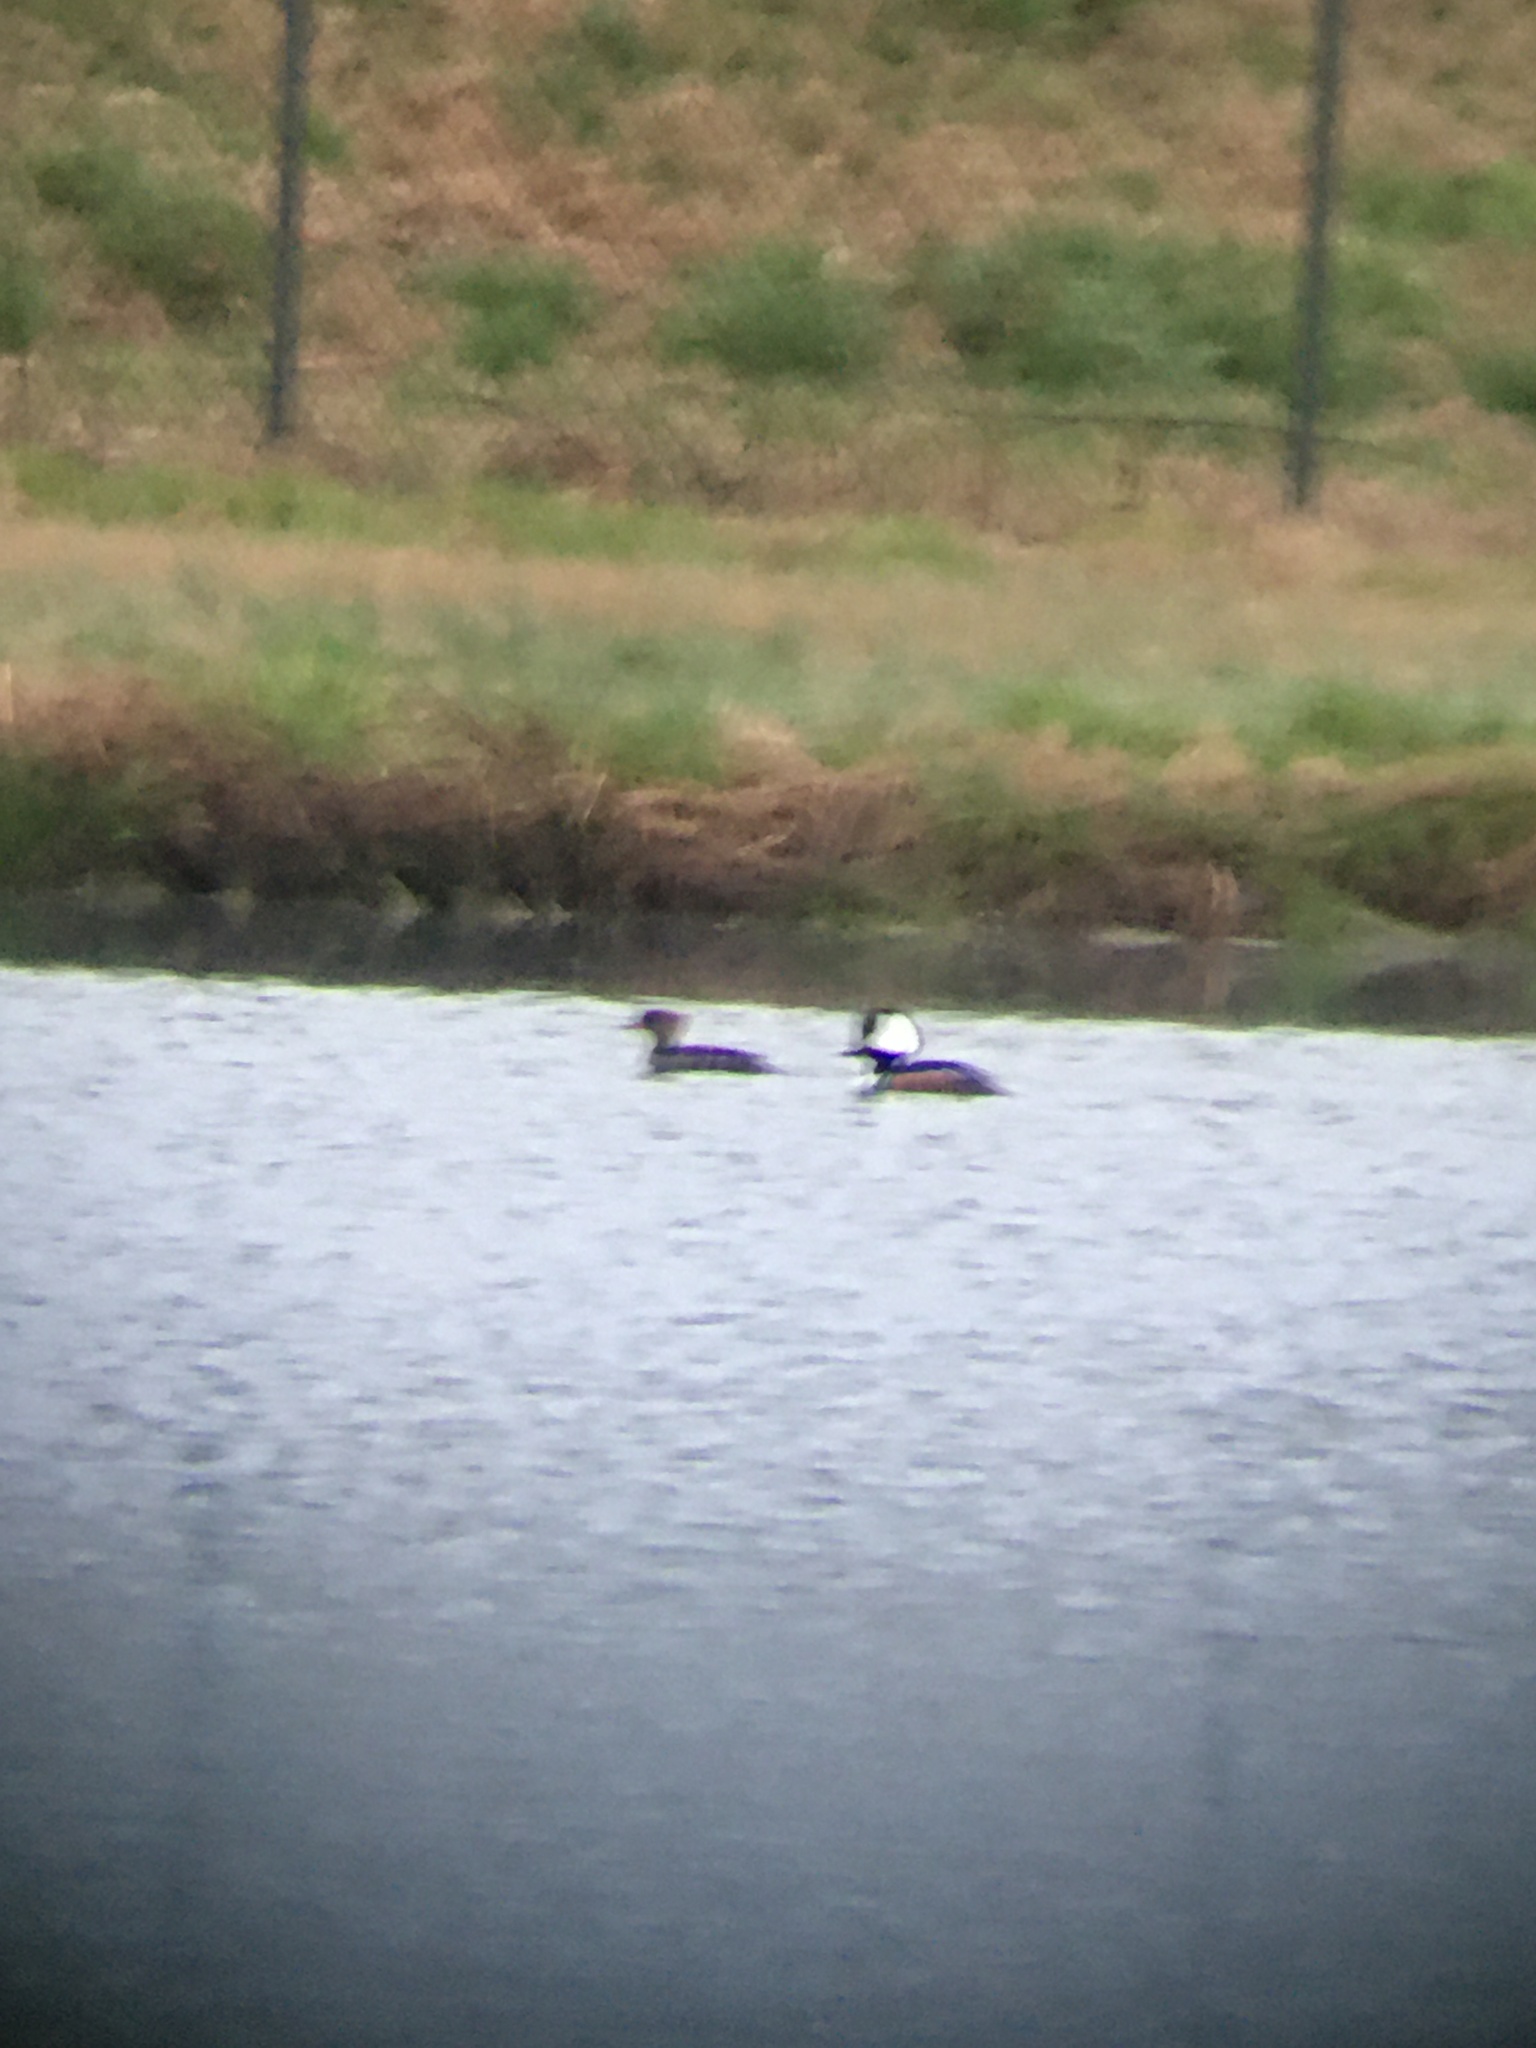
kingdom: Animalia
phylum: Chordata
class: Aves
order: Anseriformes
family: Anatidae
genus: Lophodytes
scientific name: Lophodytes cucullatus
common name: Hooded merganser
